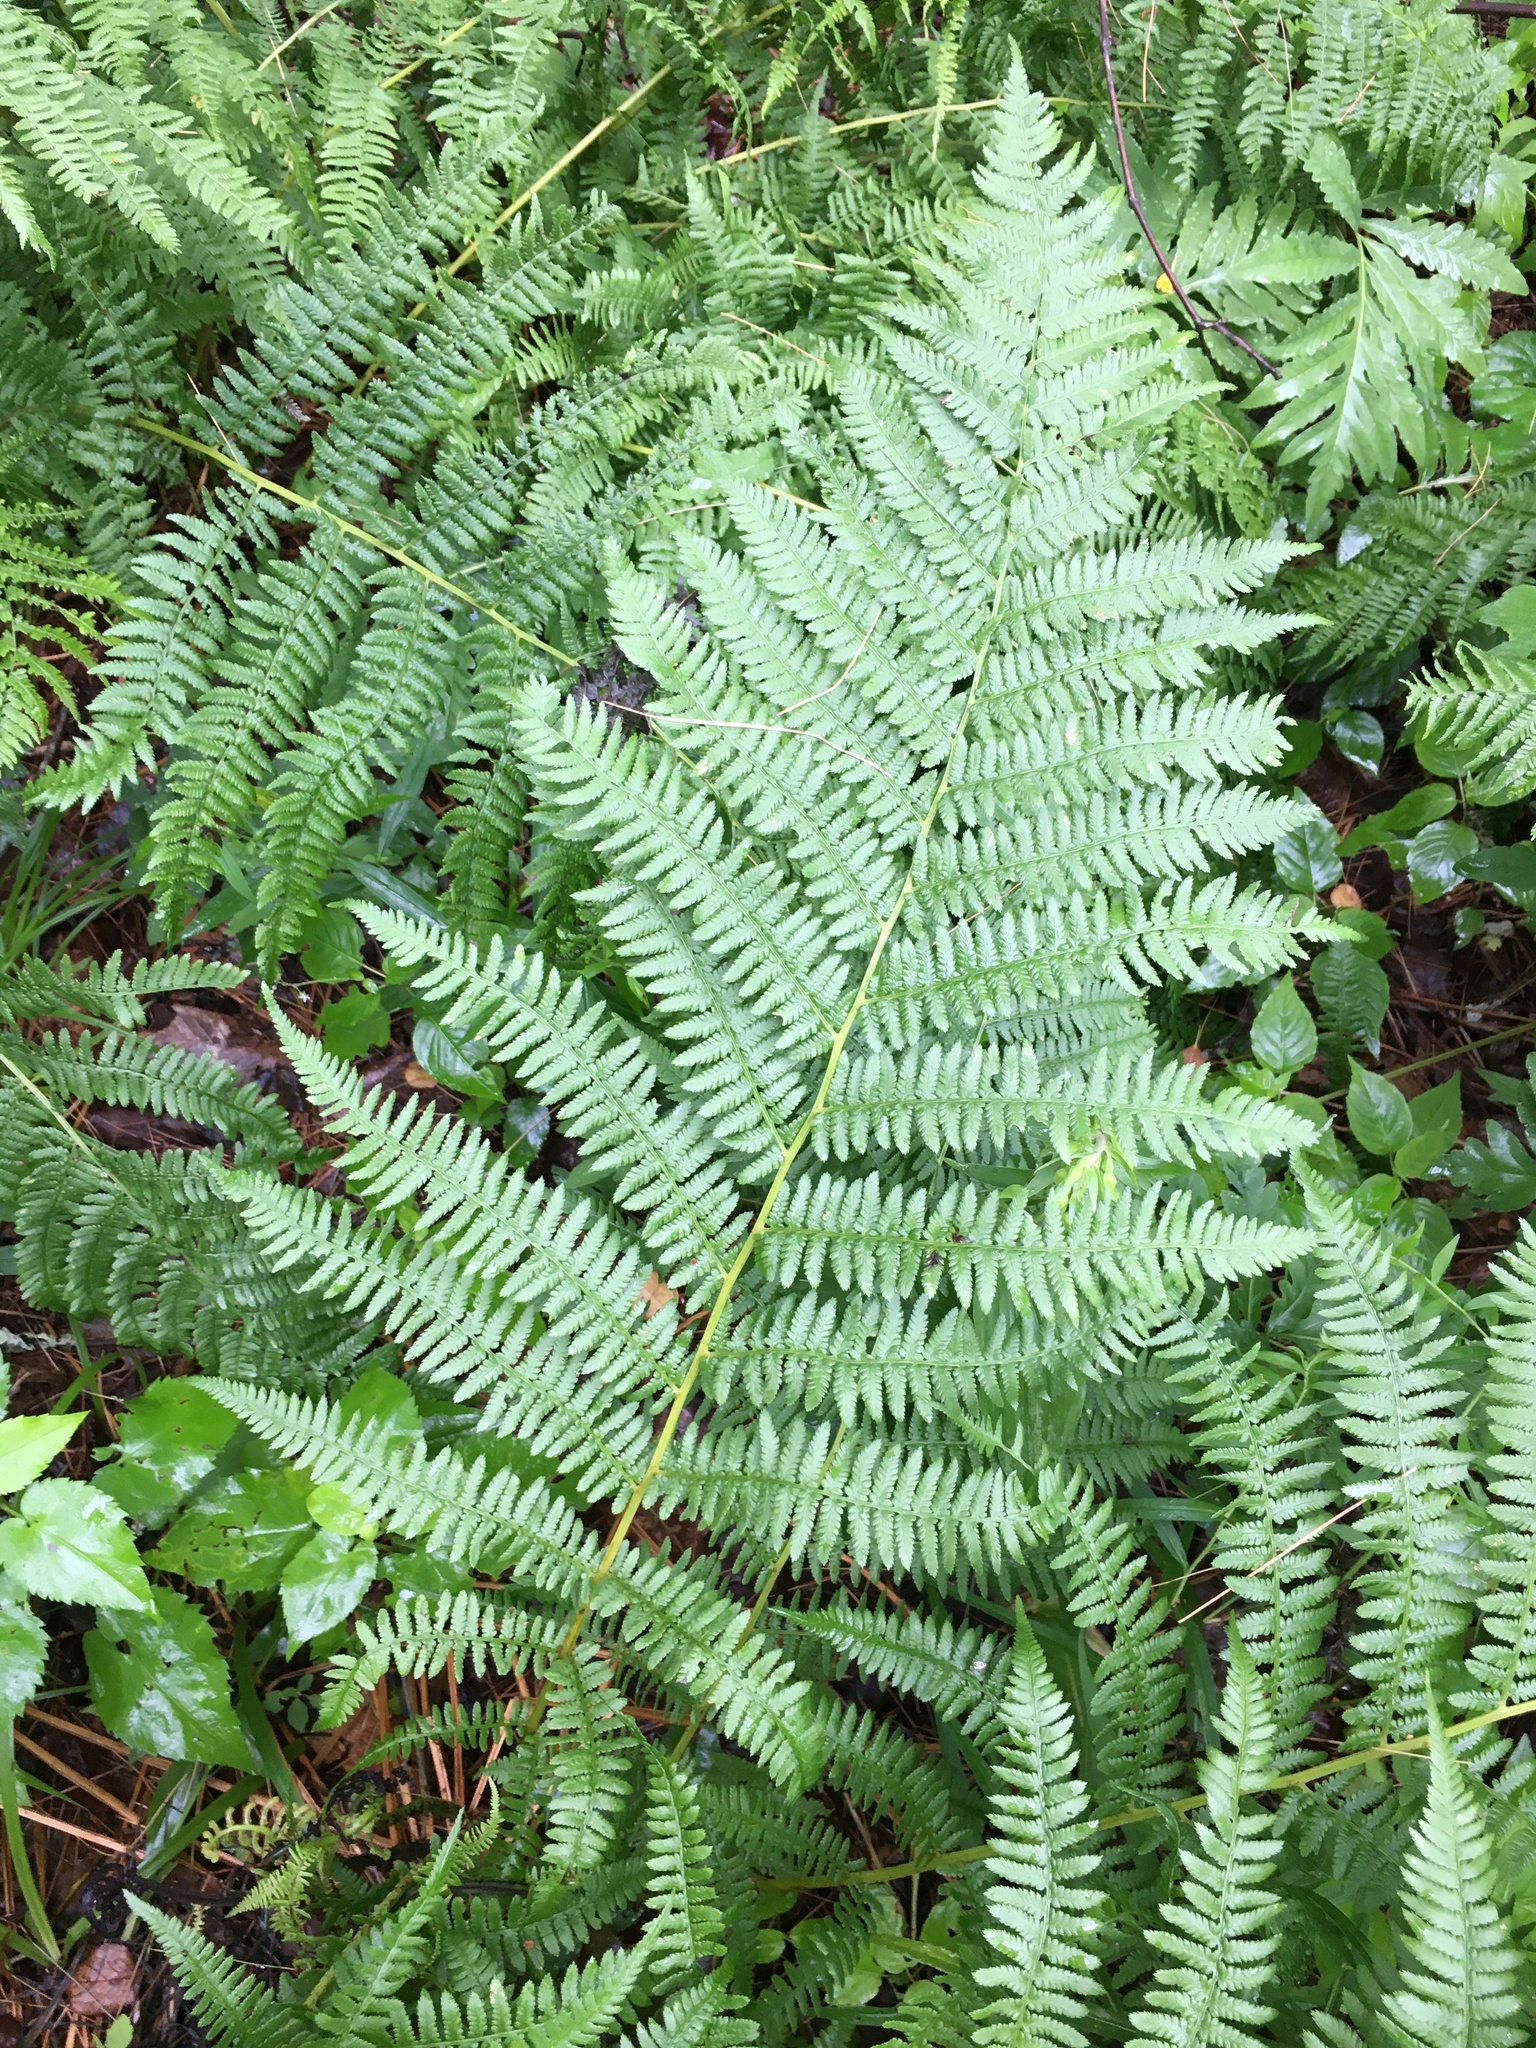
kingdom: Plantae
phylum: Tracheophyta
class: Polypodiopsida
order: Polypodiales
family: Athyriaceae
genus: Athyrium
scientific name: Athyrium angustum
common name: Northern lady fern
